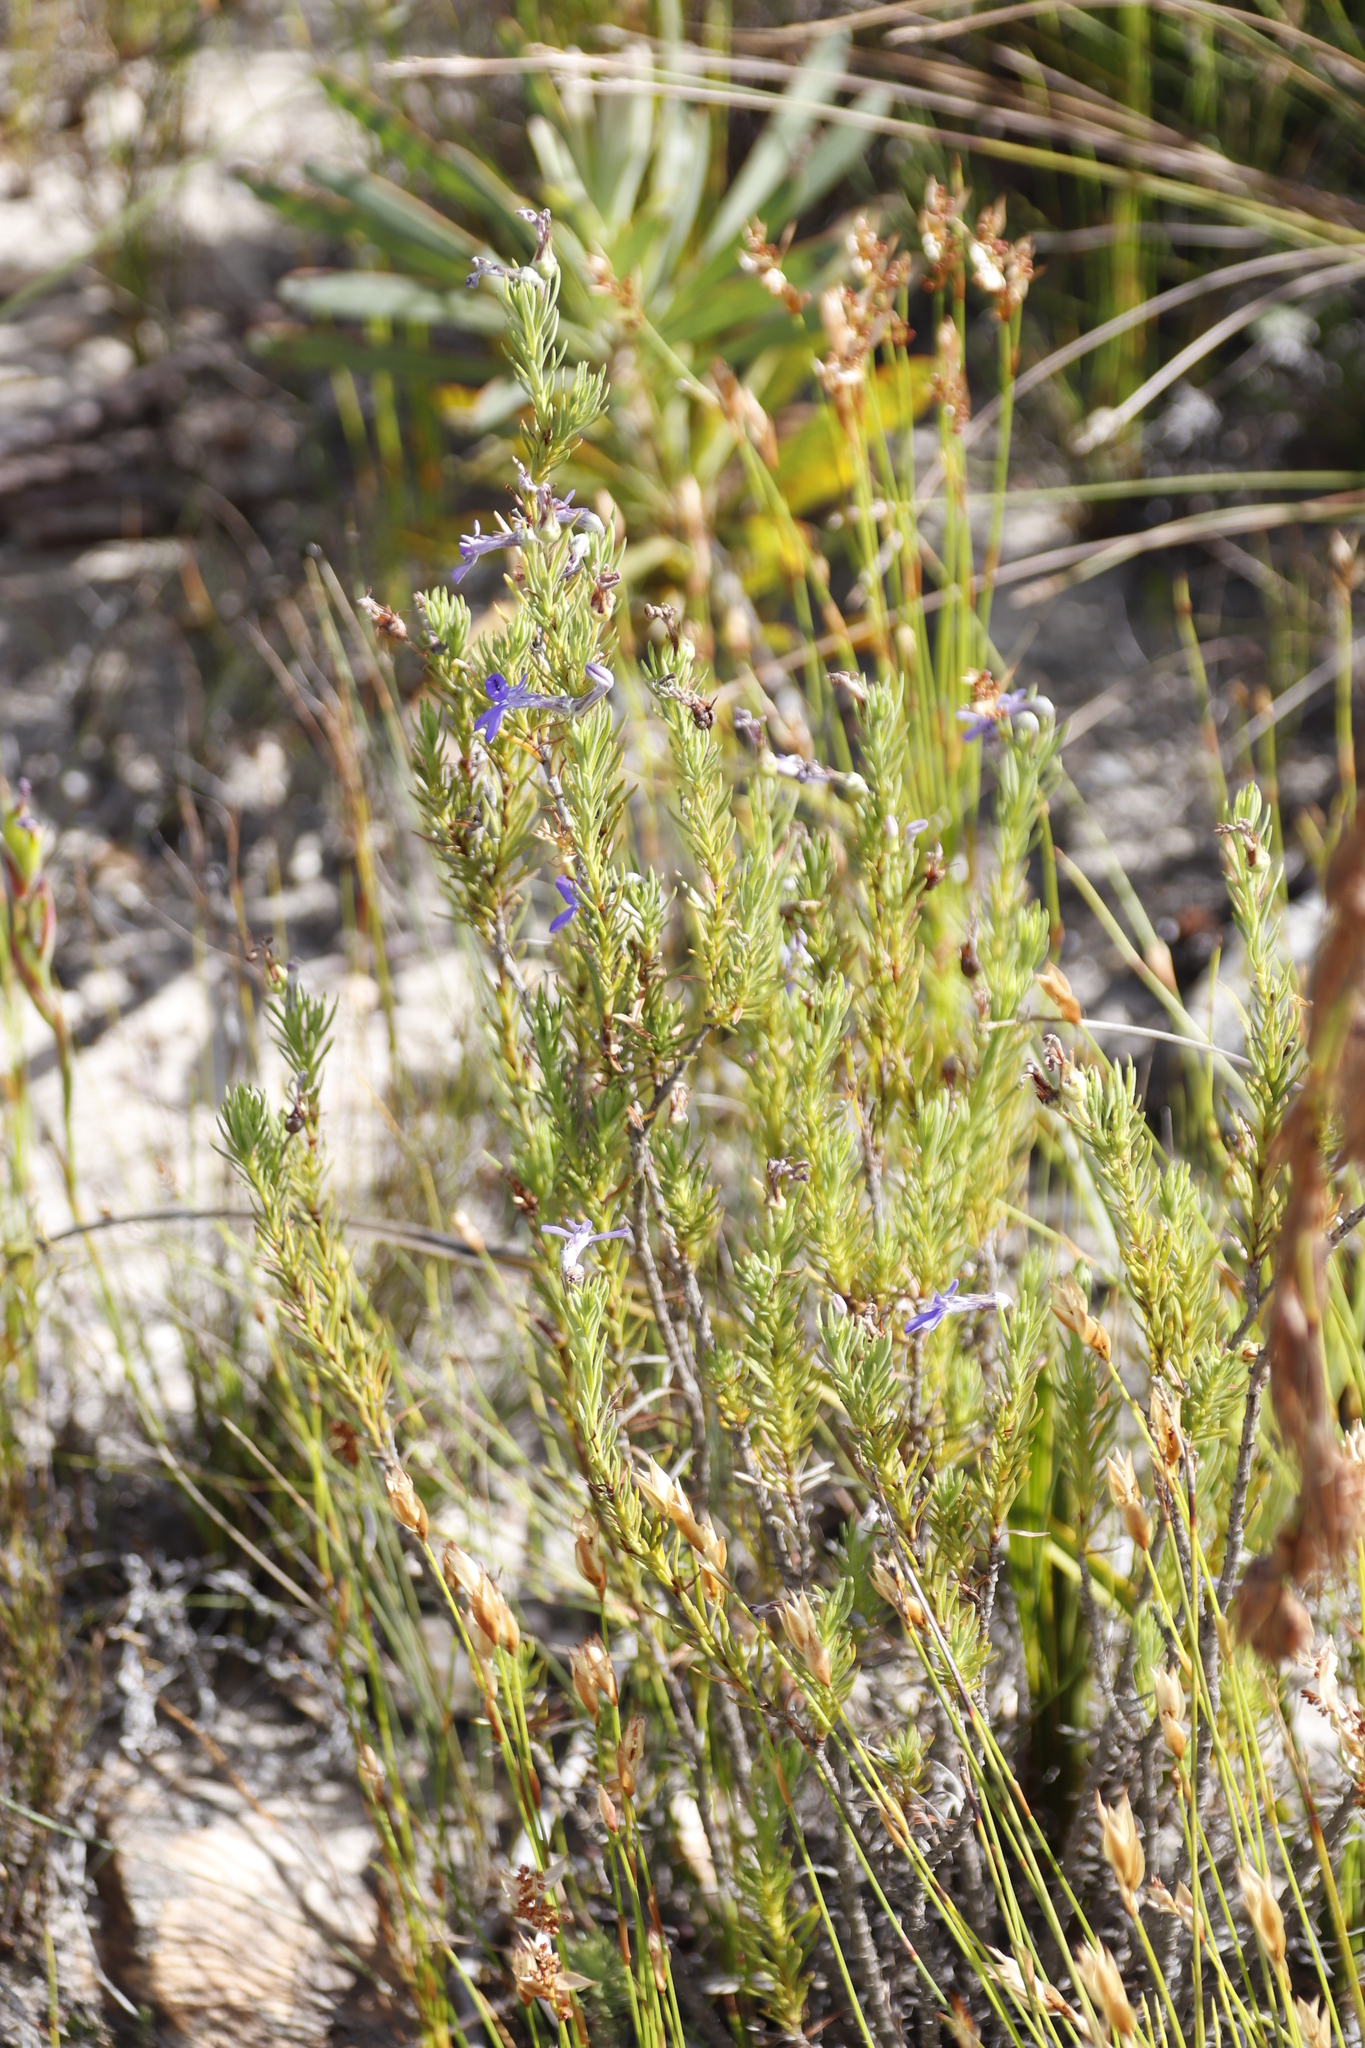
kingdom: Plantae
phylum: Tracheophyta
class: Magnoliopsida
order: Asterales
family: Campanulaceae
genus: Lobelia
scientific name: Lobelia pinifolia
